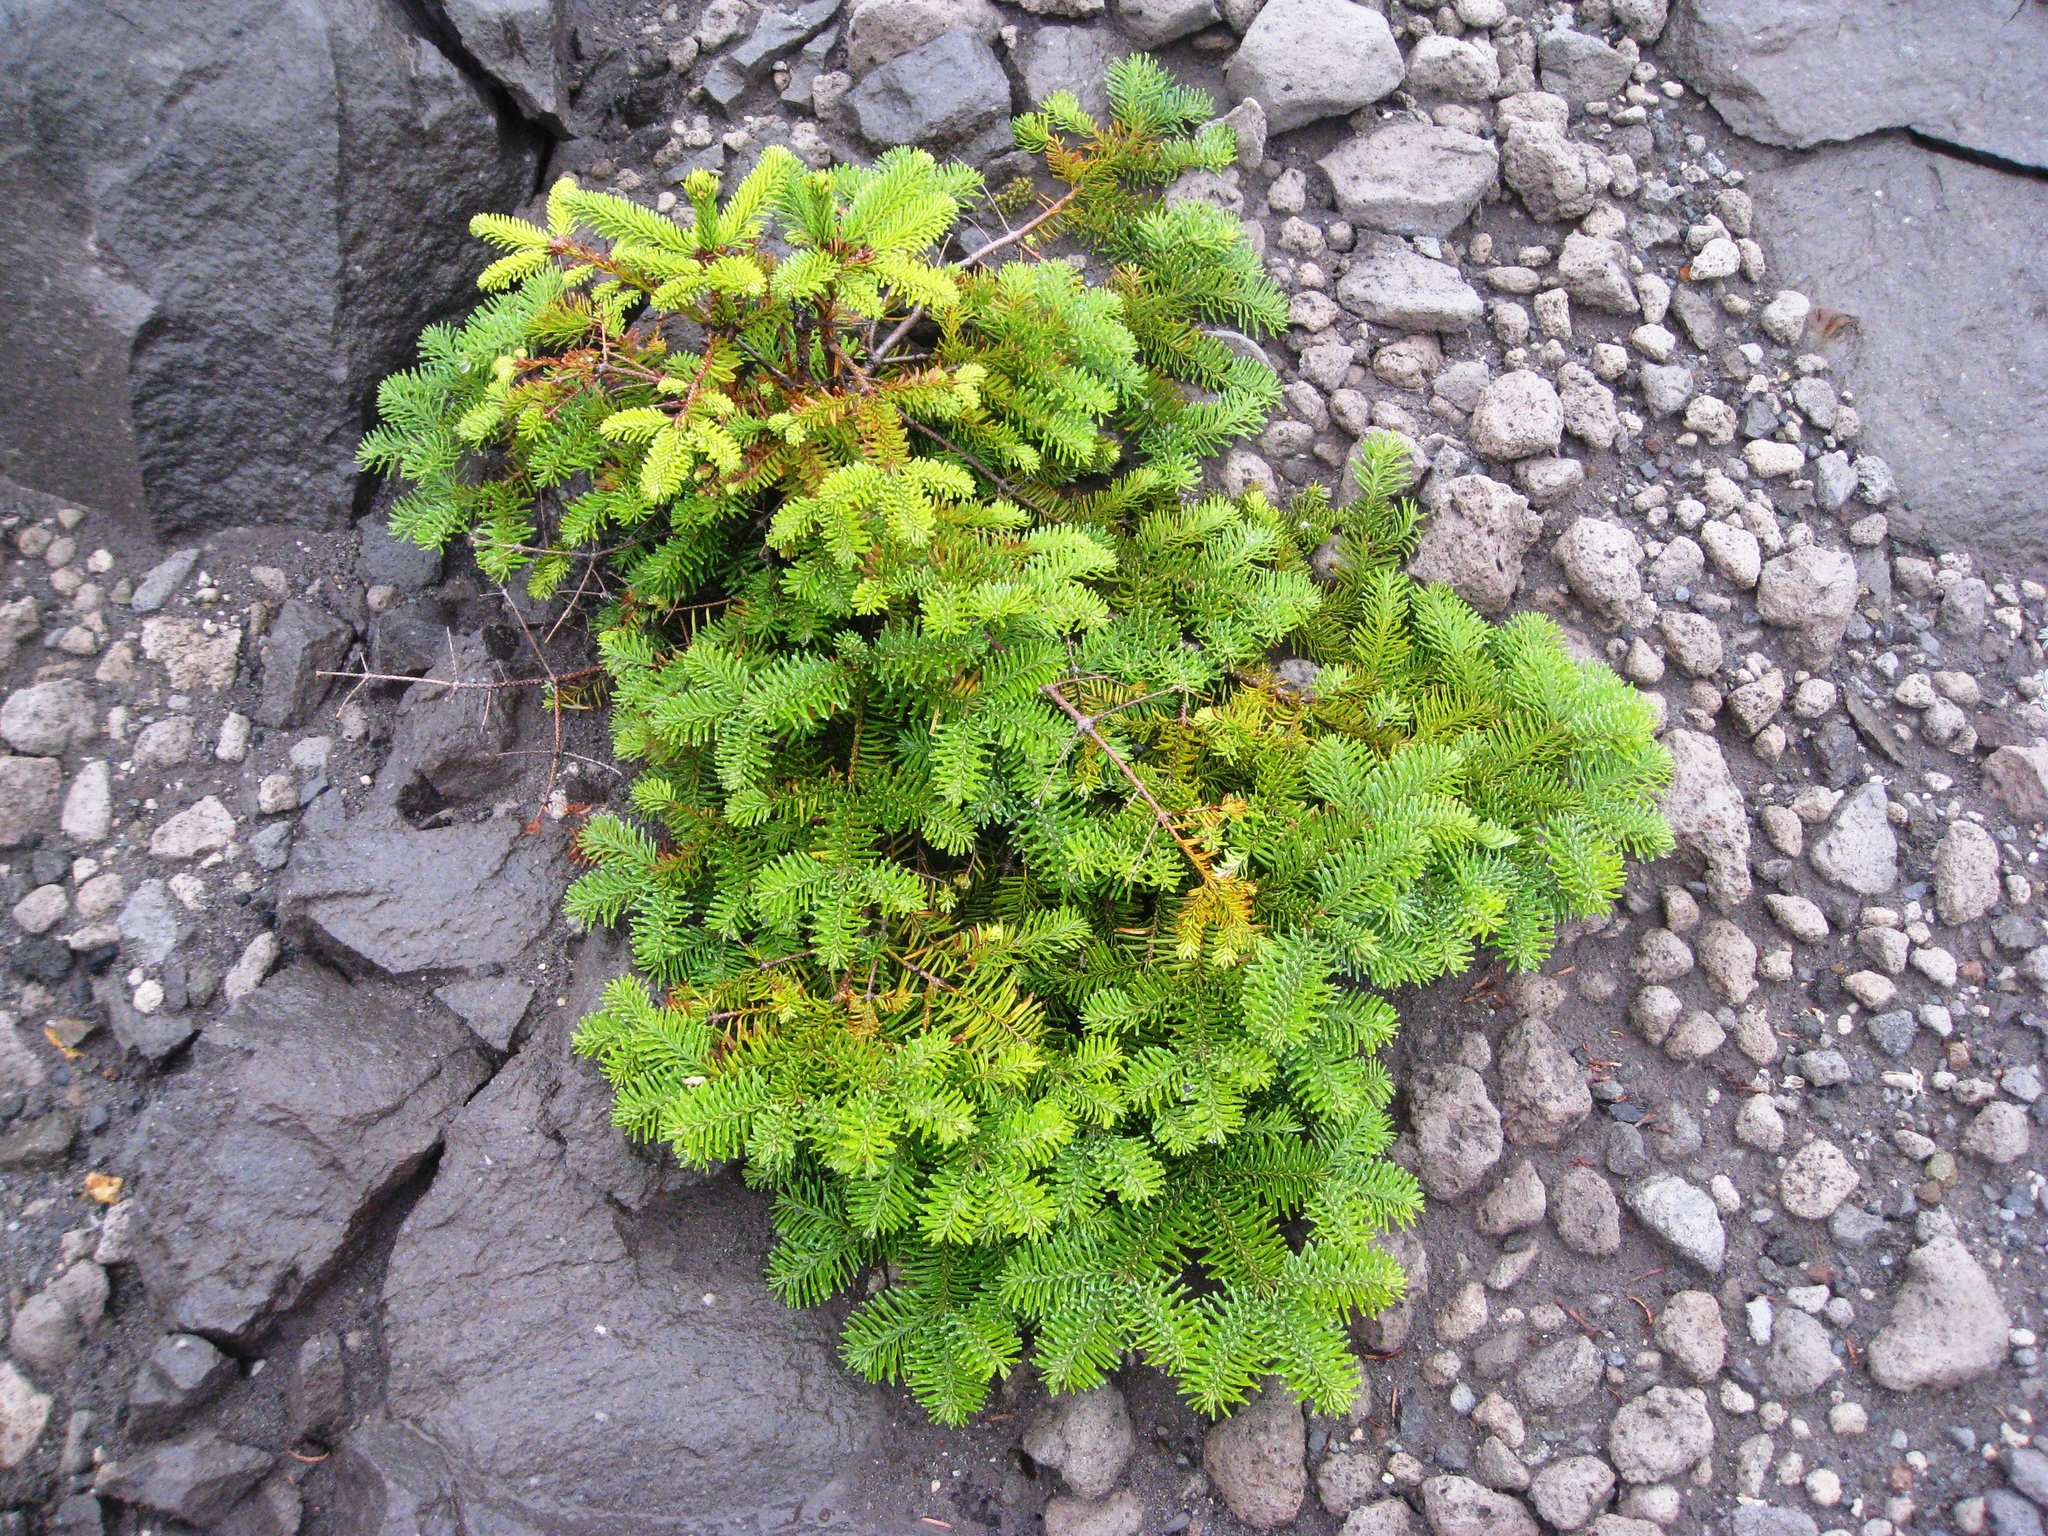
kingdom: Plantae
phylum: Tracheophyta
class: Pinopsida
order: Pinales
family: Pinaceae
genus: Abies
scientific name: Abies procera
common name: Noble fir
